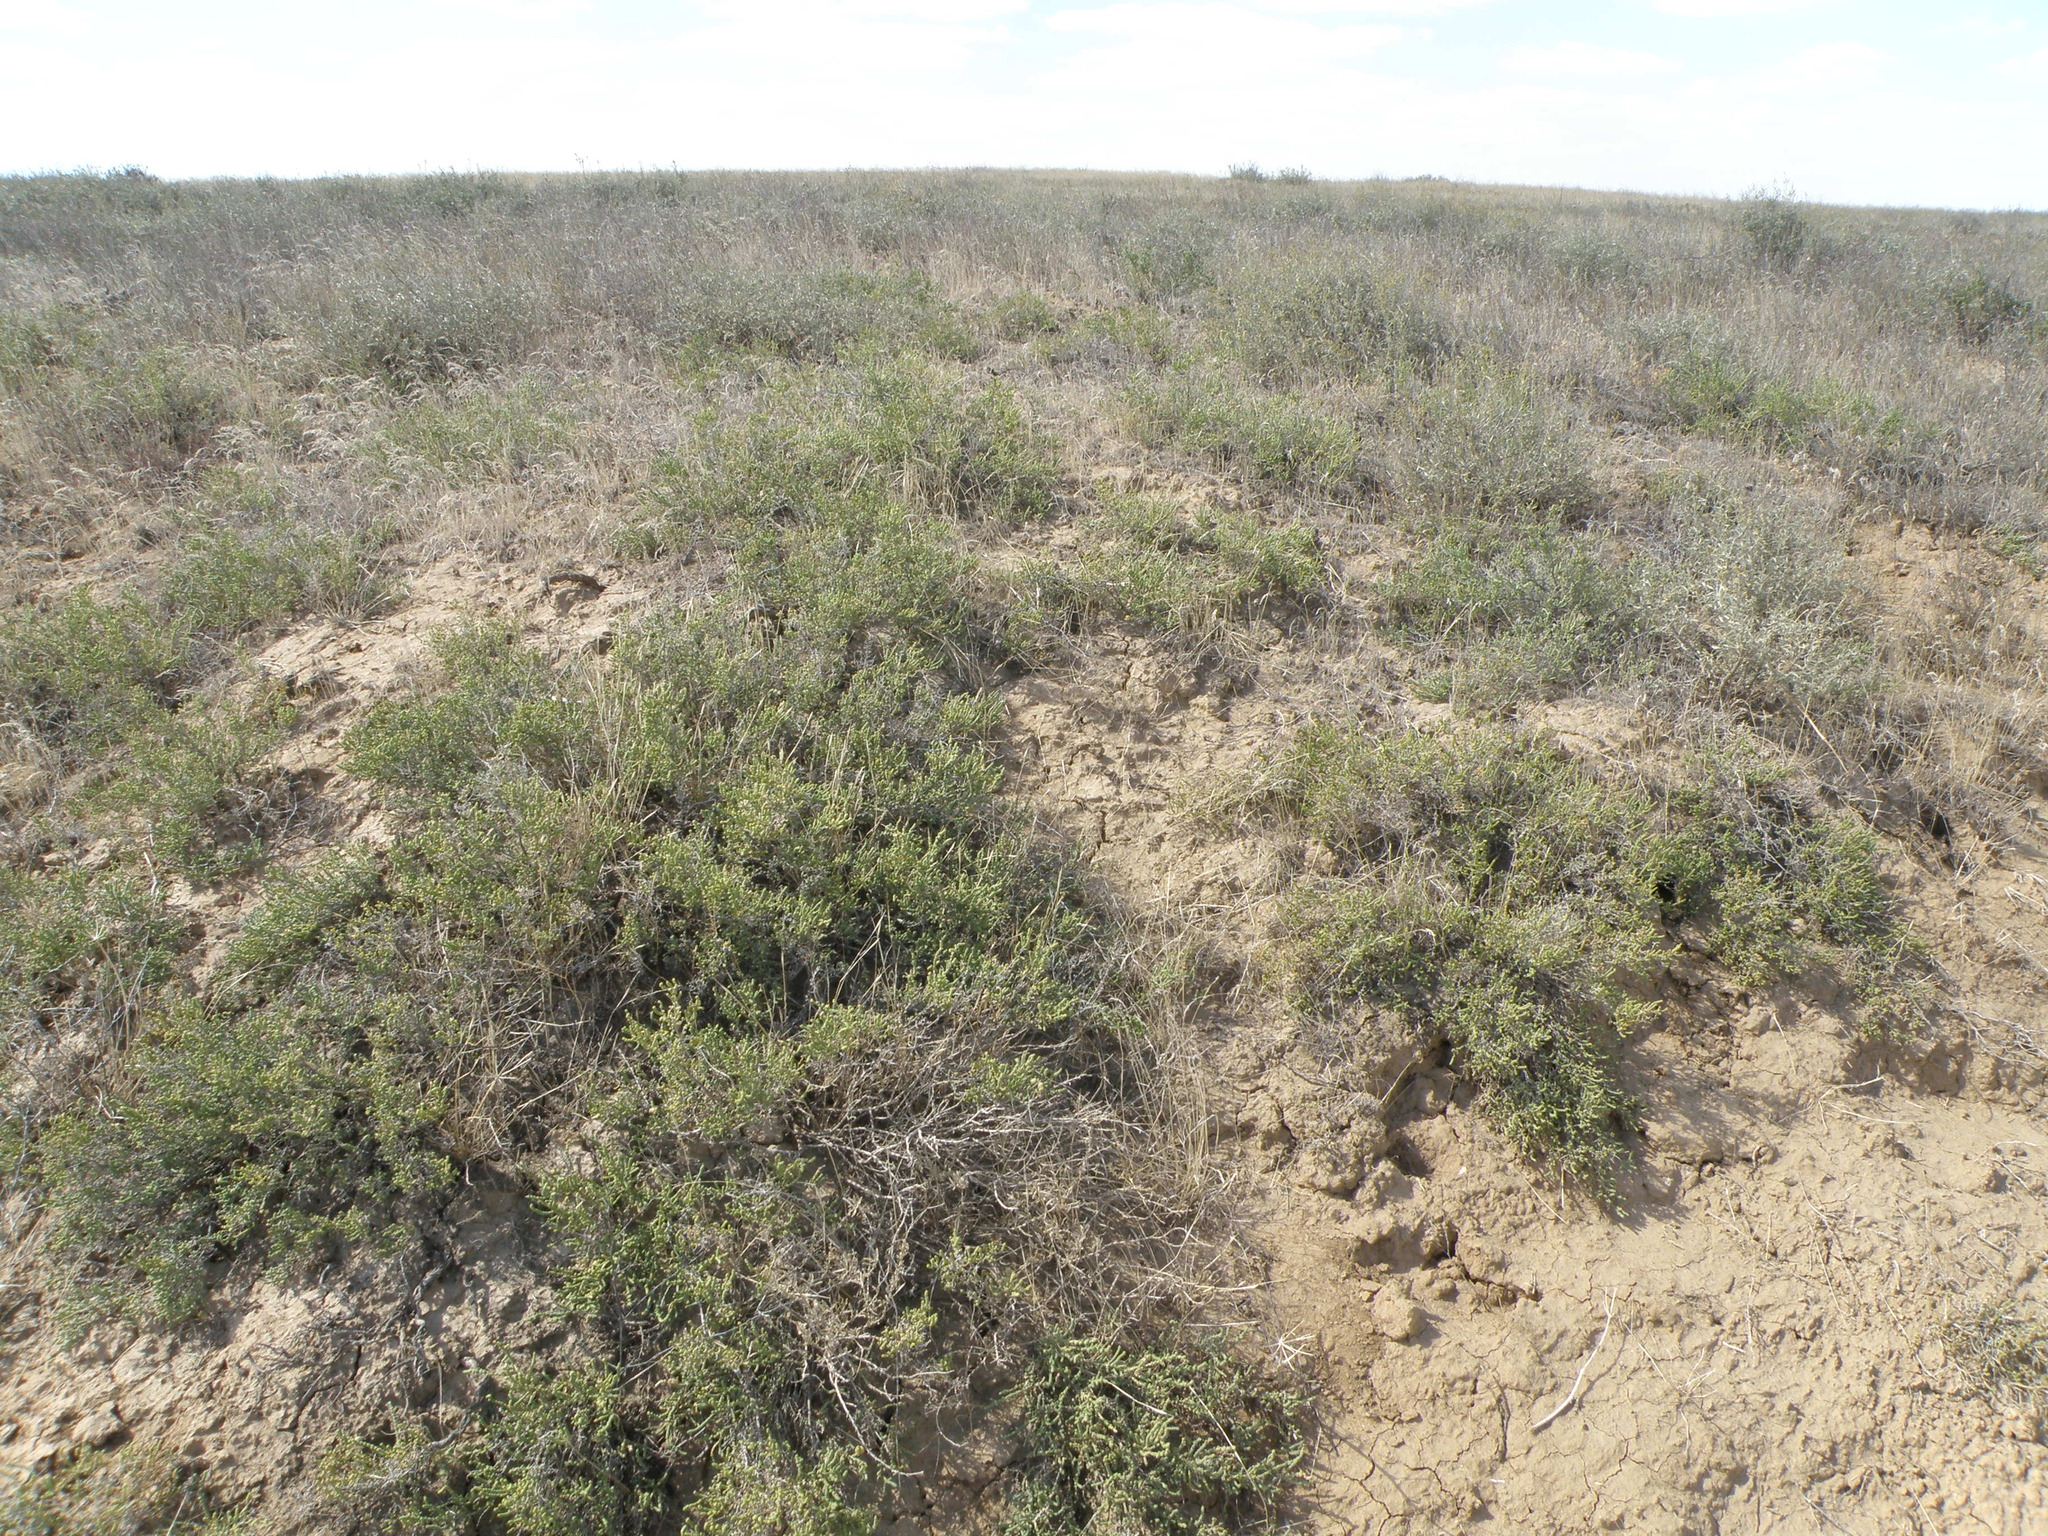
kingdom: Plantae
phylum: Tracheophyta
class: Magnoliopsida
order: Caryophyllales
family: Amaranthaceae
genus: Halocnemum
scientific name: Halocnemum strobilaceum
